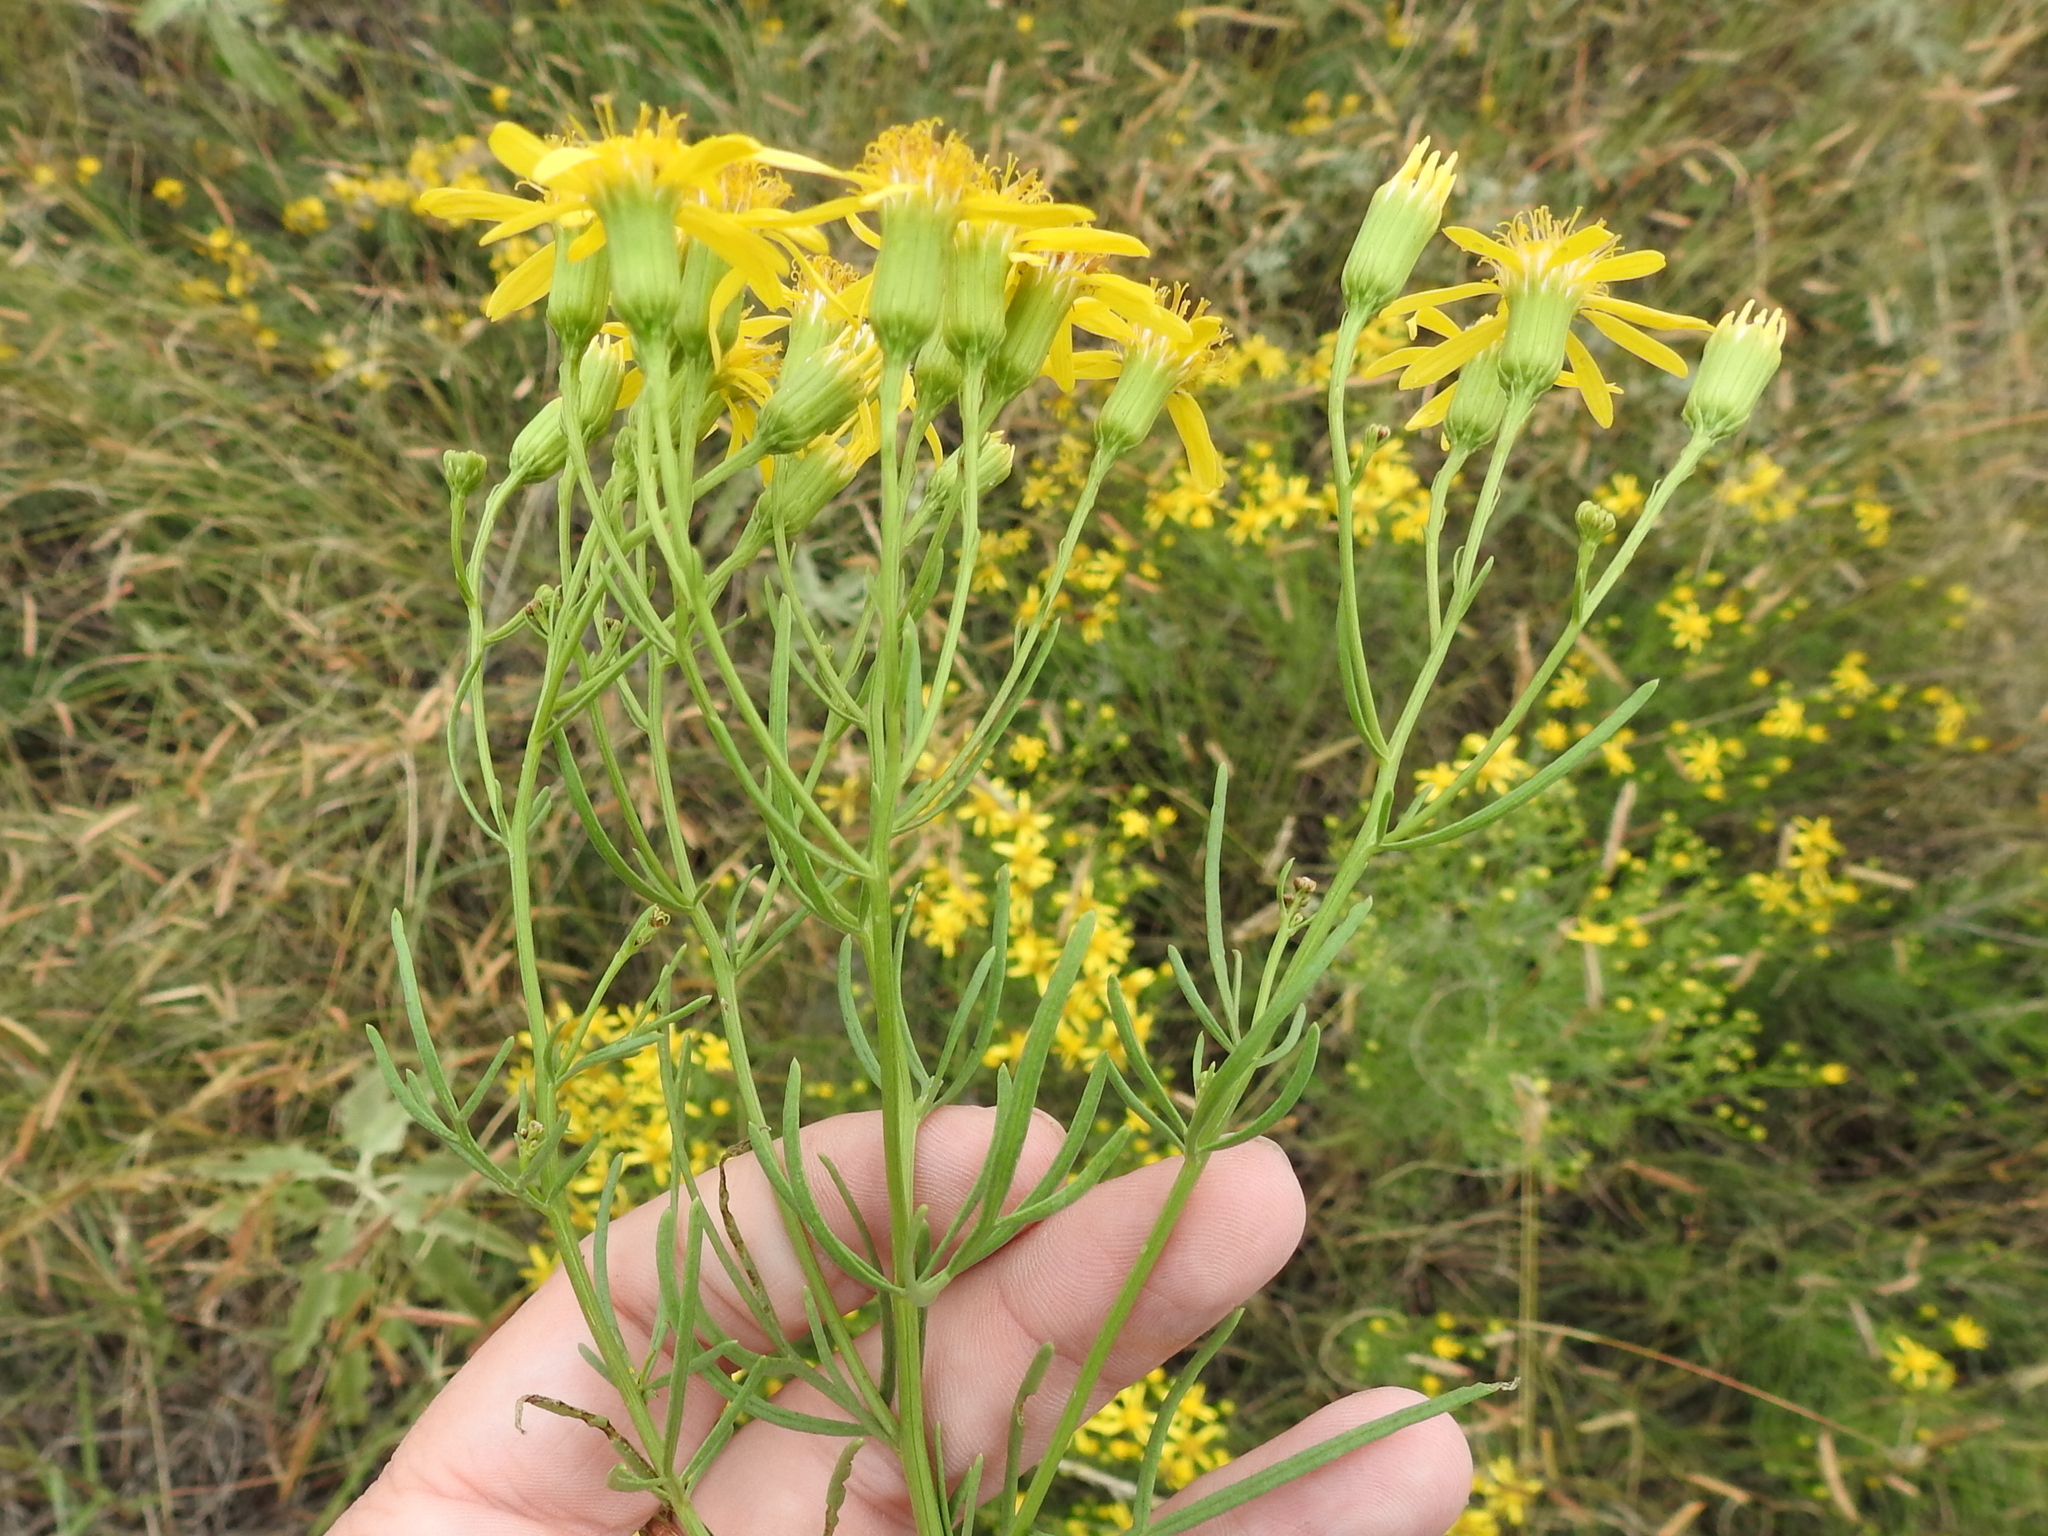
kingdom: Plantae
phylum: Tracheophyta
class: Magnoliopsida
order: Asterales
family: Asteraceae
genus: Senecio
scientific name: Senecio riddellii
